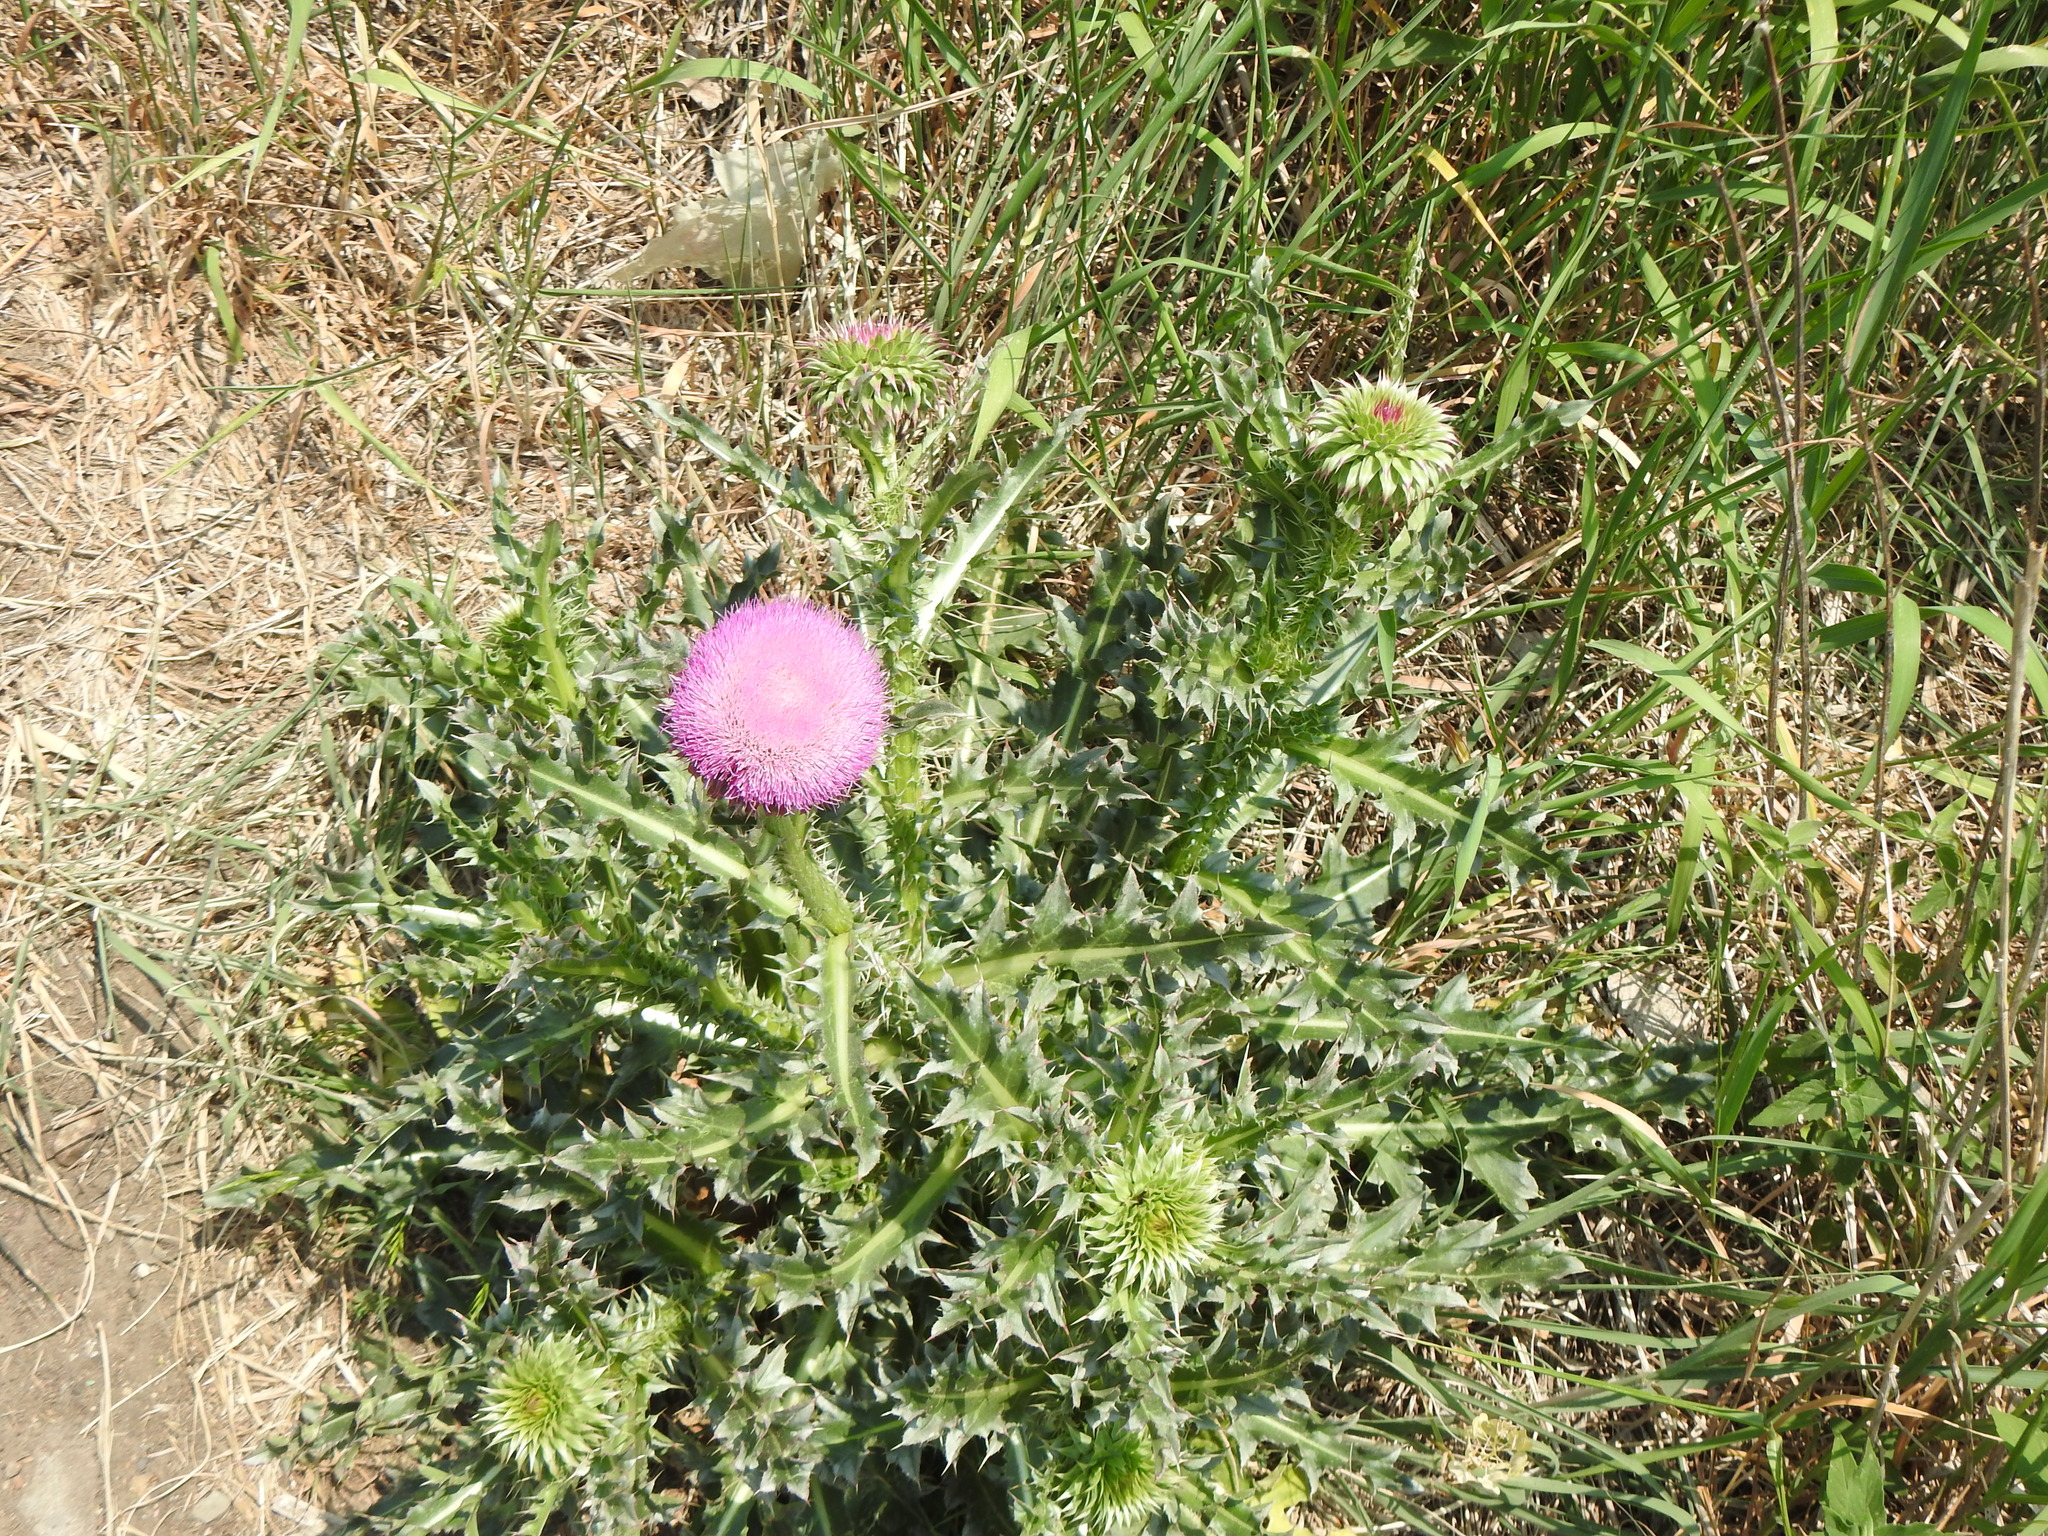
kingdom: Plantae
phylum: Tracheophyta
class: Magnoliopsida
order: Asterales
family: Asteraceae
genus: Carduus
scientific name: Carduus nutans
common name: Musk thistle
